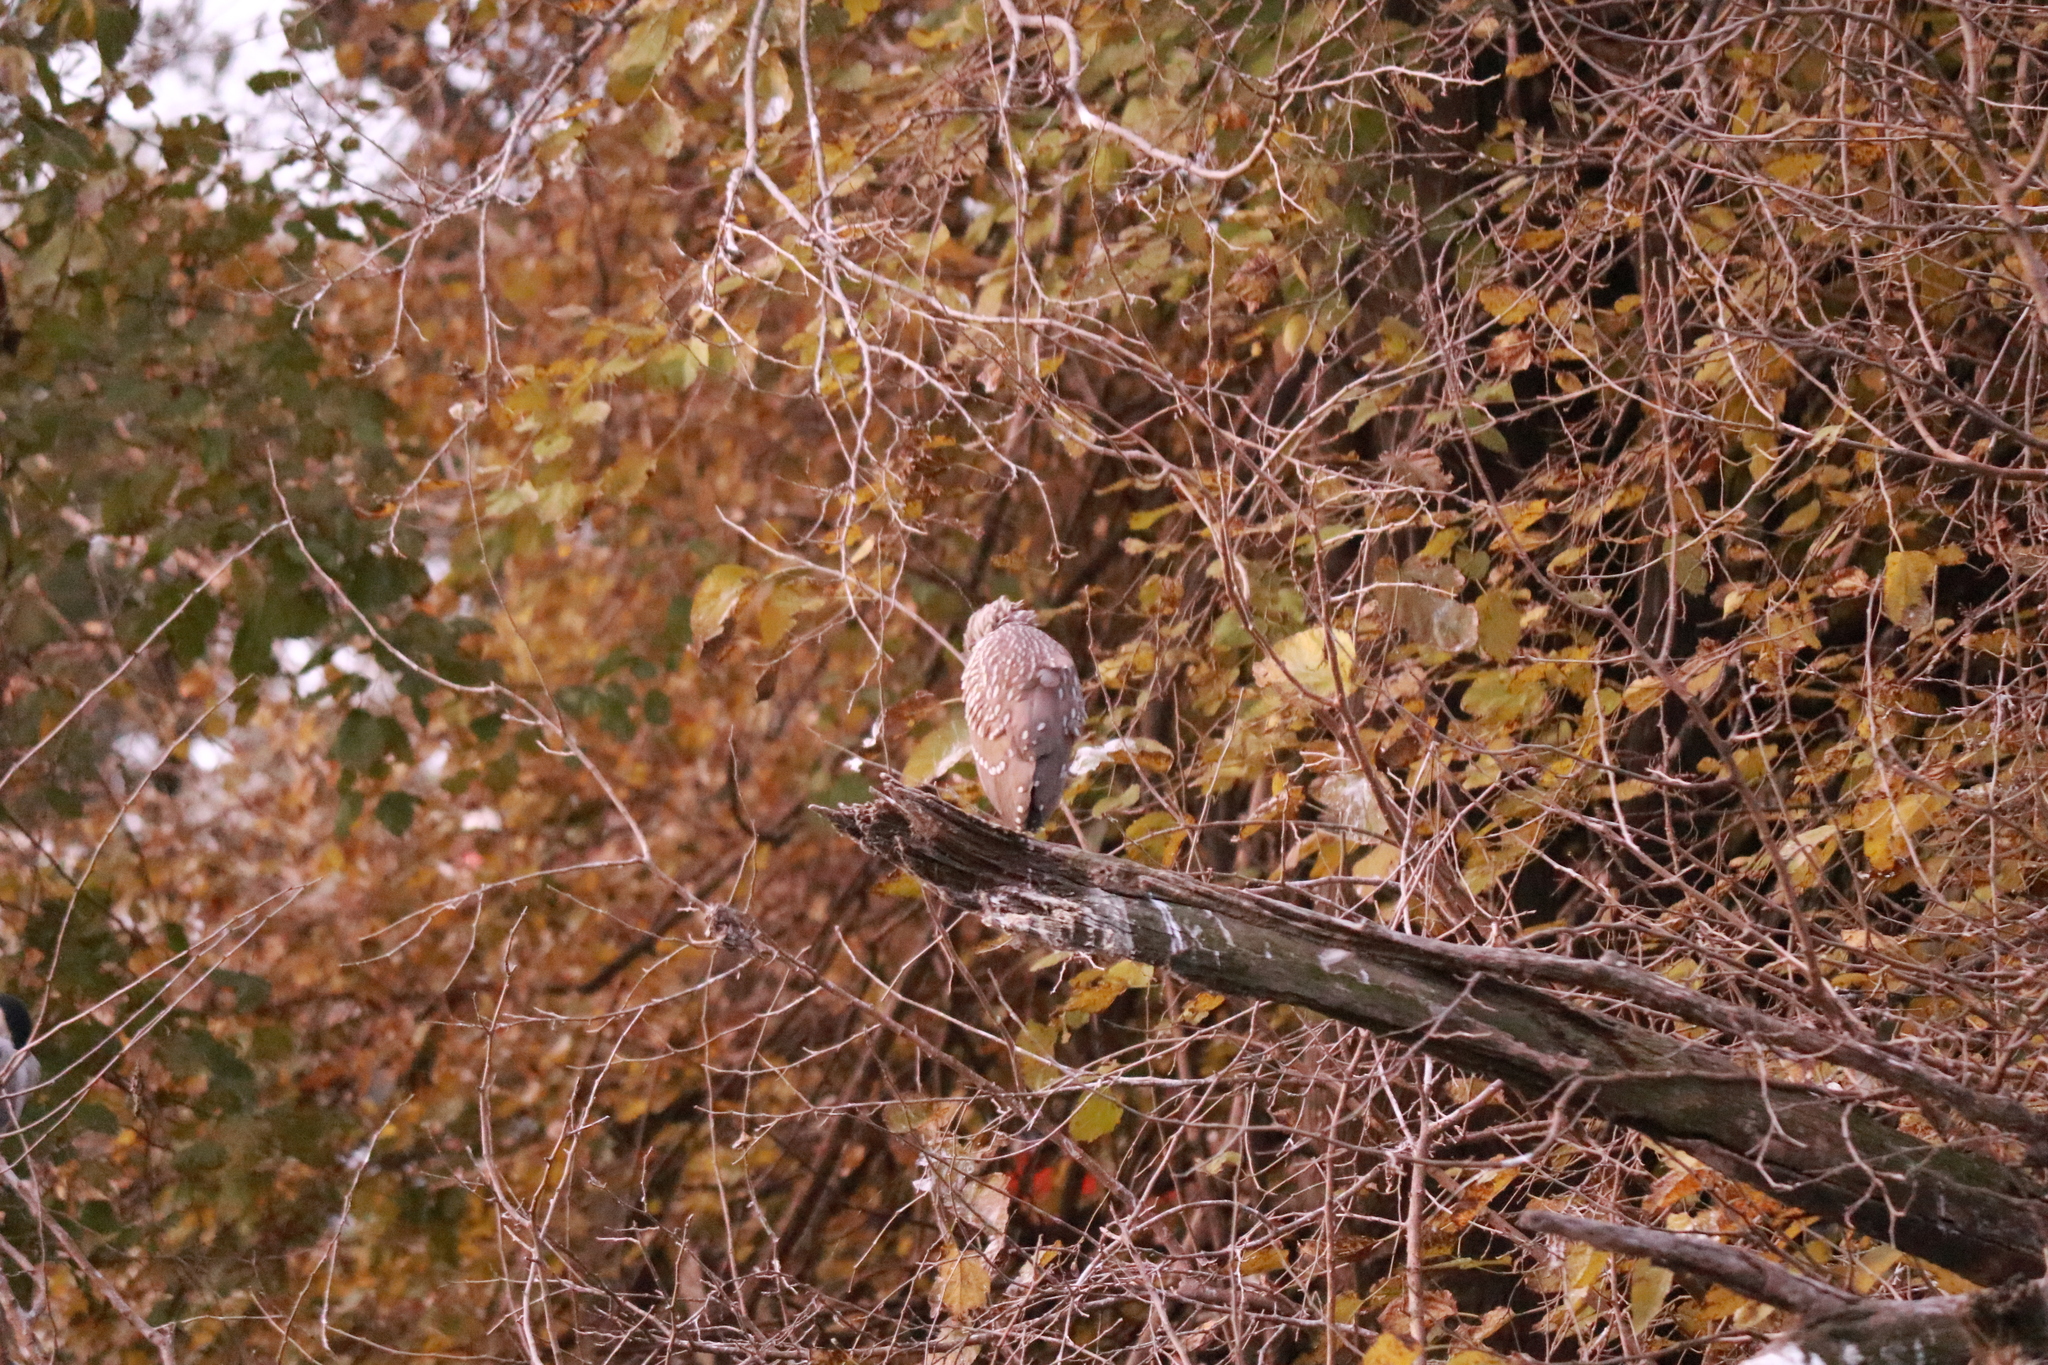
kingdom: Animalia
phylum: Chordata
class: Aves
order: Pelecaniformes
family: Ardeidae
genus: Nycticorax
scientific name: Nycticorax nycticorax
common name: Black-crowned night heron
